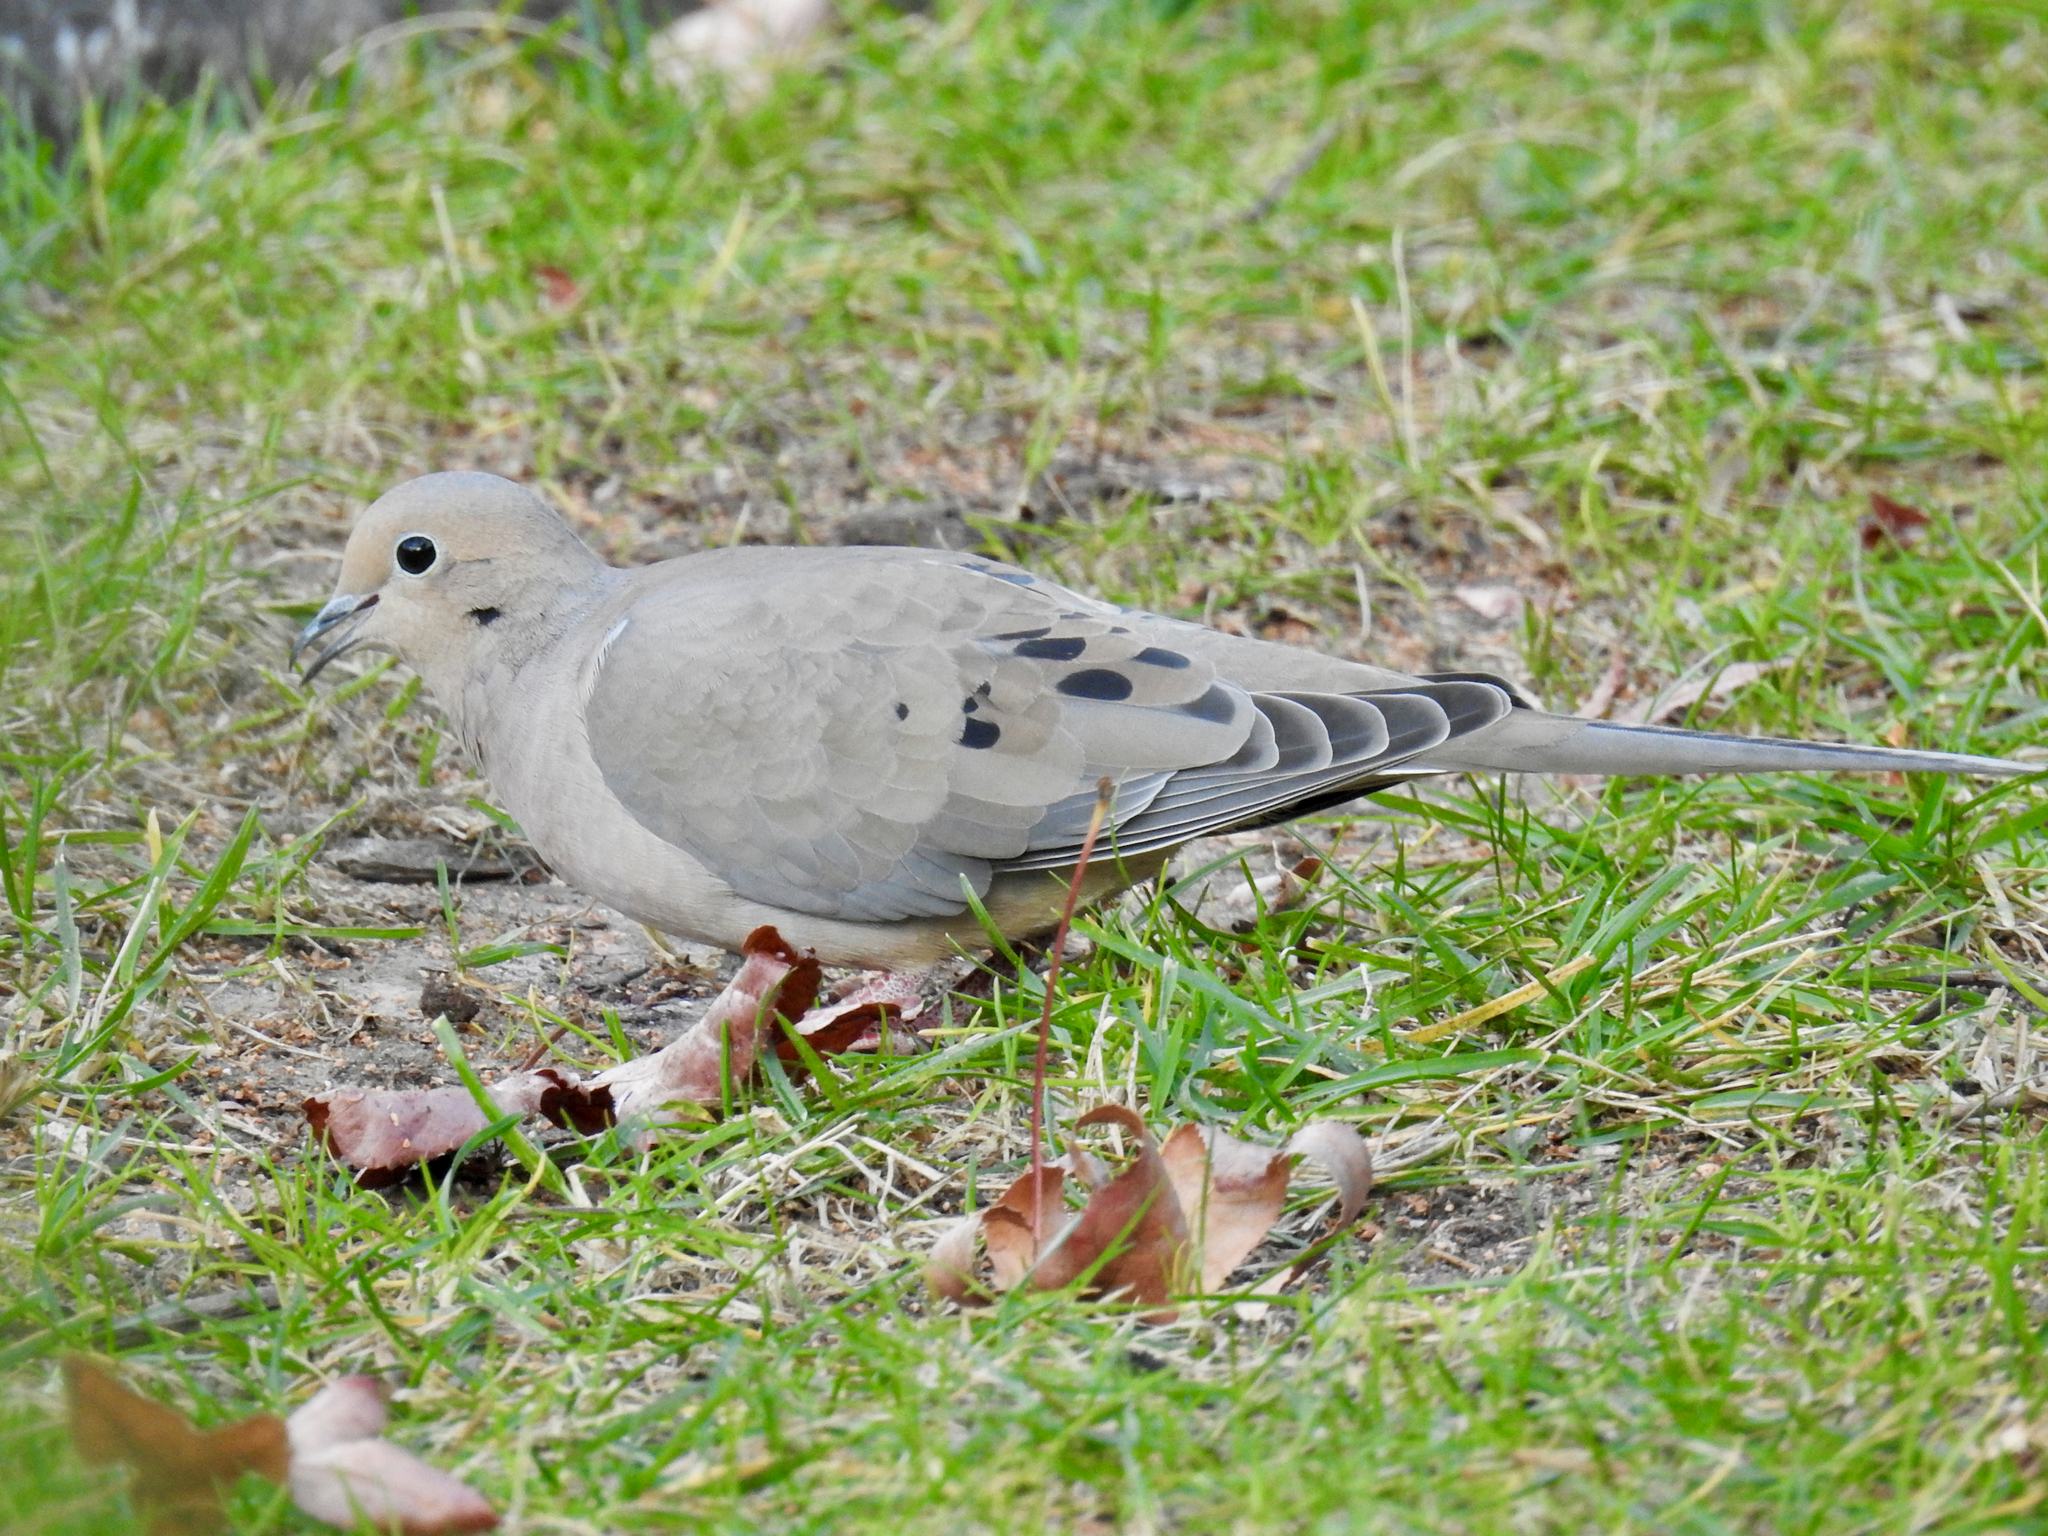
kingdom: Animalia
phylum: Chordata
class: Aves
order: Columbiformes
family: Columbidae
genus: Zenaida
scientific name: Zenaida macroura
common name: Mourning dove
